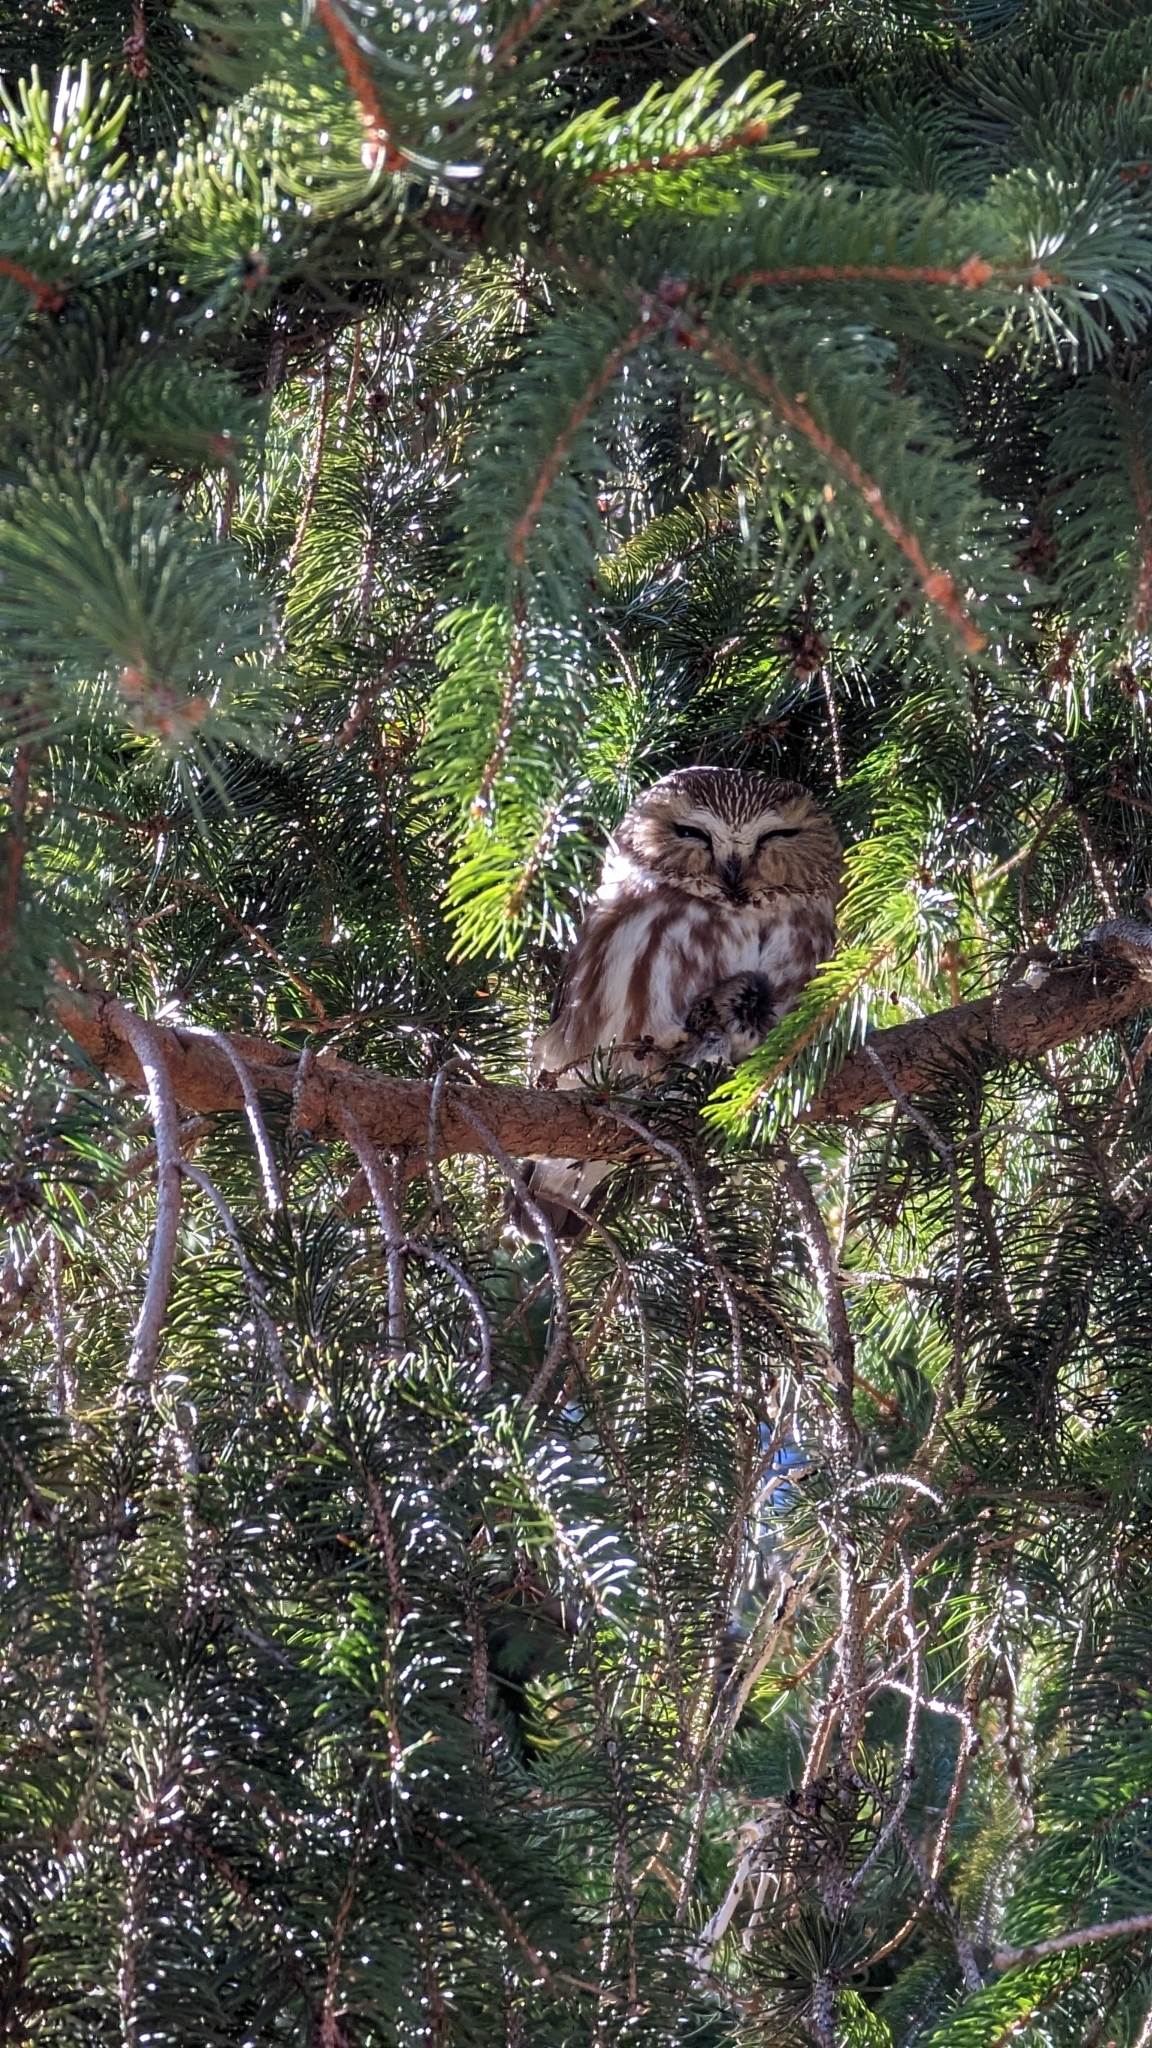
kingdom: Animalia
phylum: Chordata
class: Aves
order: Strigiformes
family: Strigidae
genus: Aegolius
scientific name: Aegolius acadicus
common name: Northern saw-whet owl
